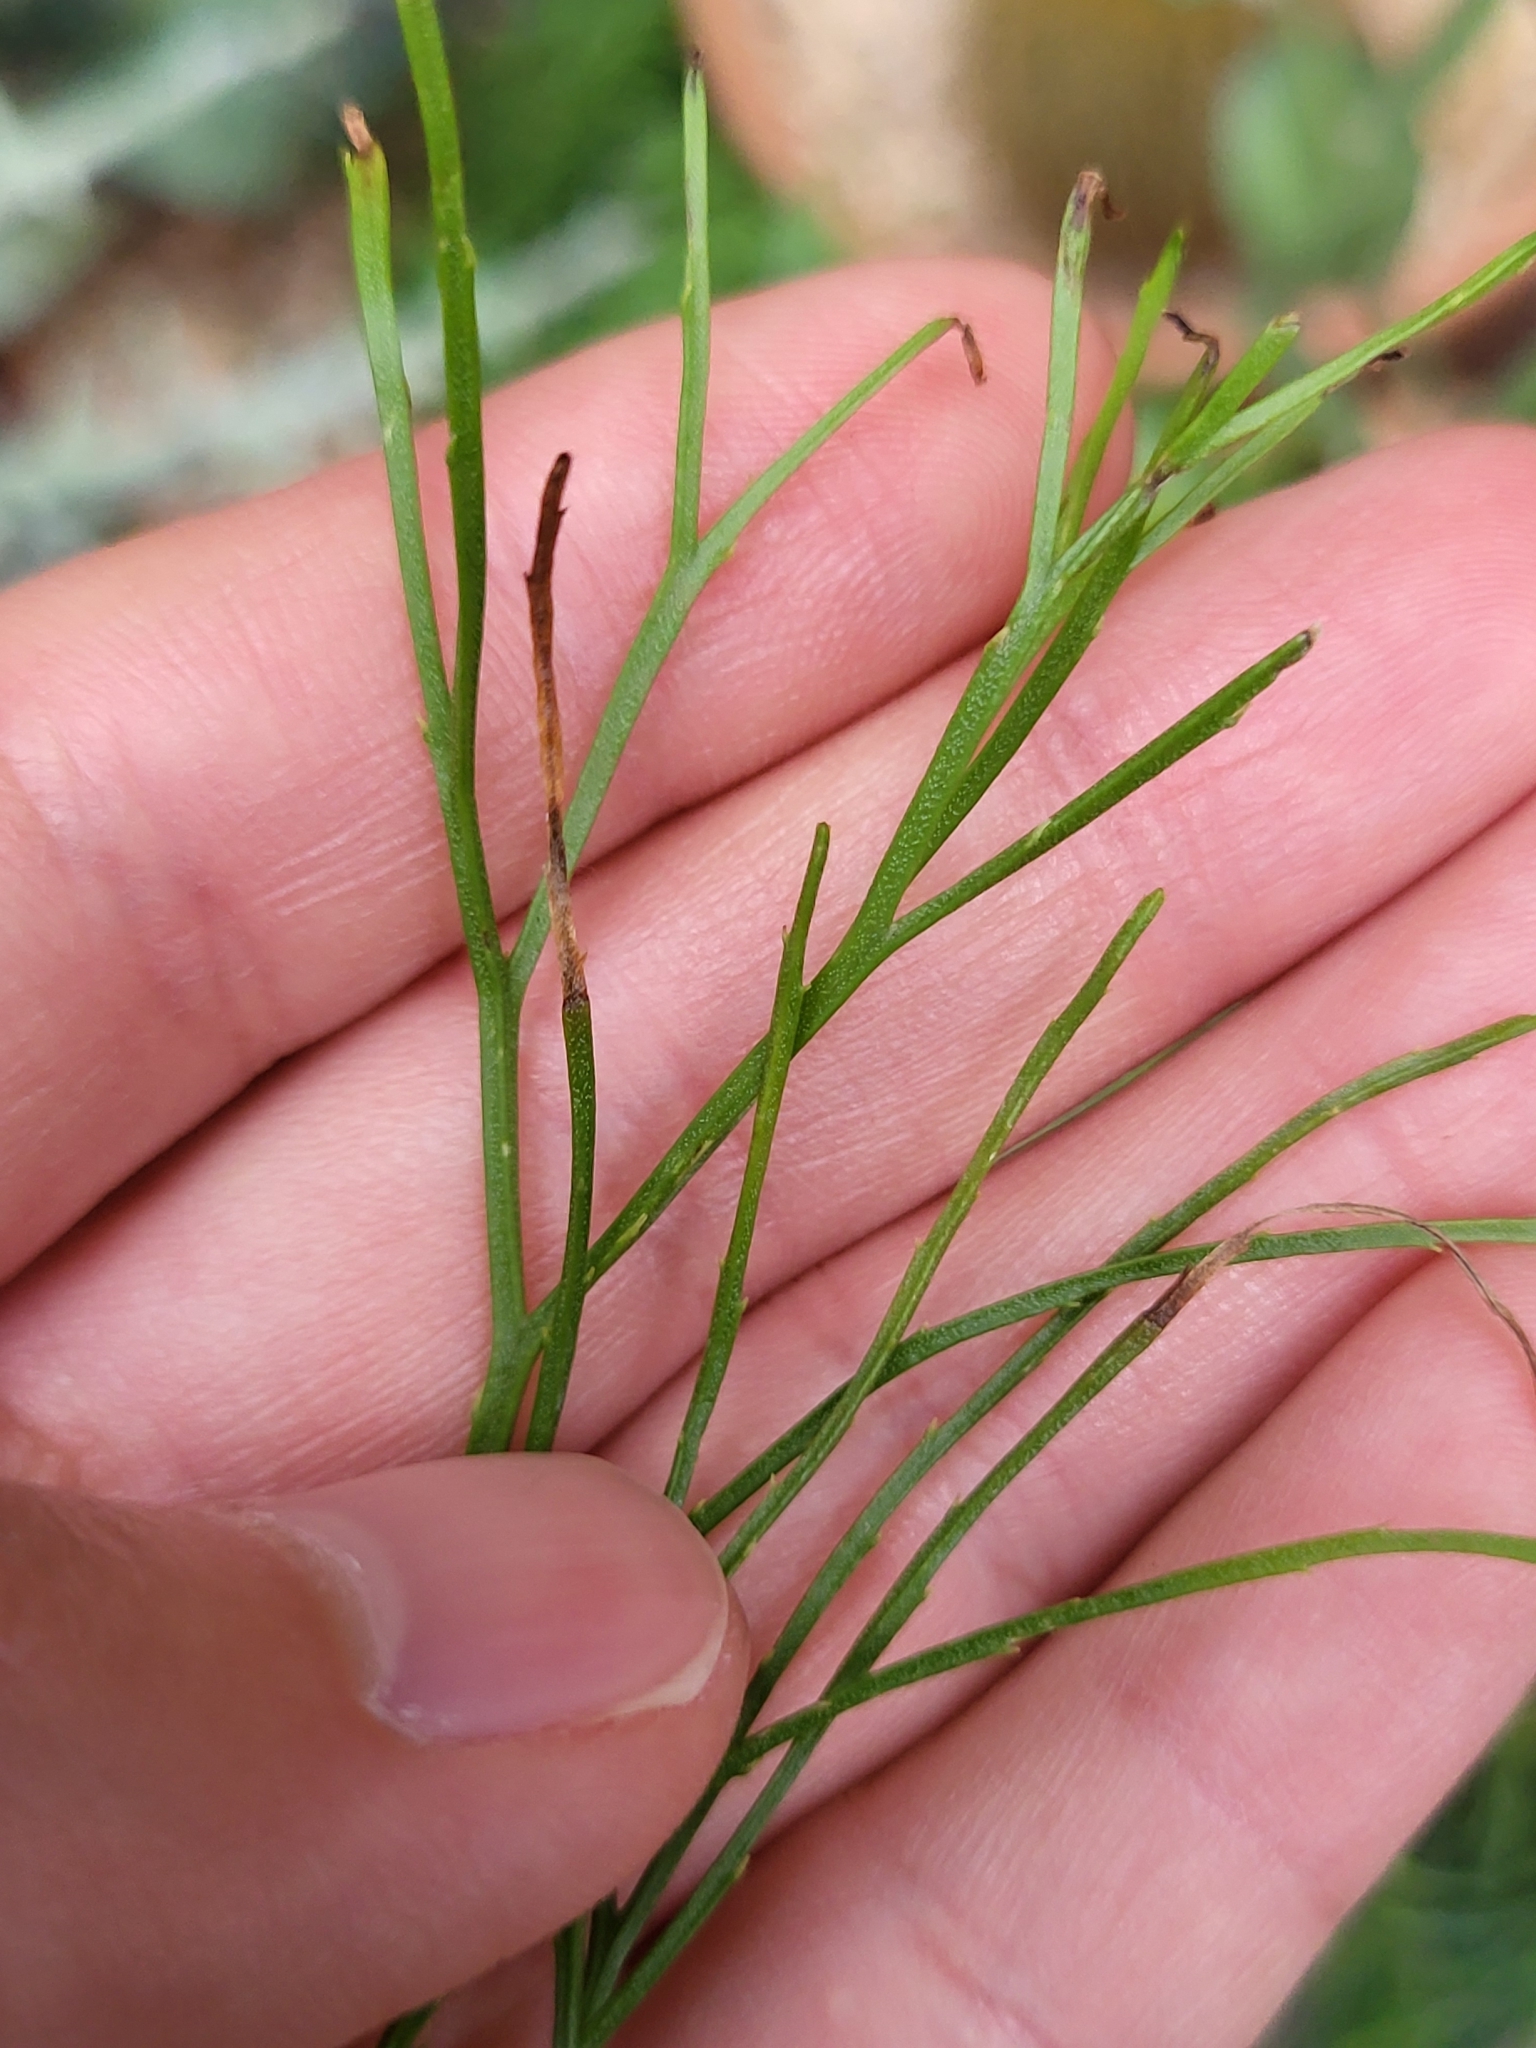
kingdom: Plantae
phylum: Tracheophyta
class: Polypodiopsida
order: Psilotales
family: Psilotaceae
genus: Psilotum
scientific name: Psilotum nudum
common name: Skeleton fork fern
